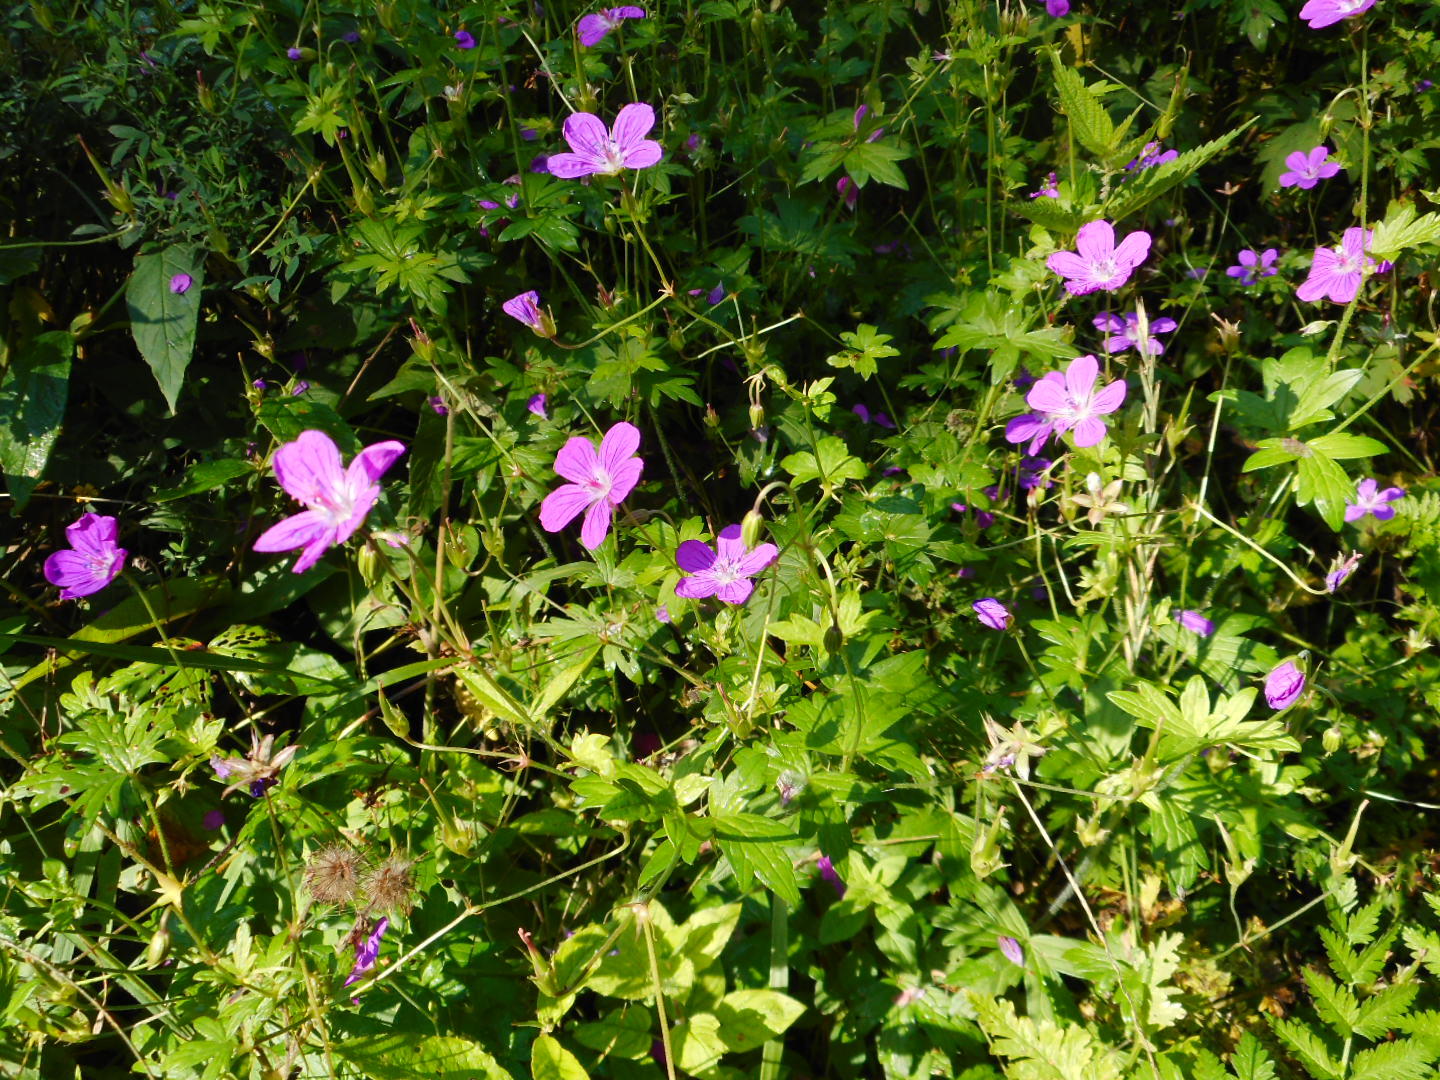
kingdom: Plantae
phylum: Tracheophyta
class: Magnoliopsida
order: Geraniales
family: Geraniaceae
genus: Geranium
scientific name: Geranium palustre
